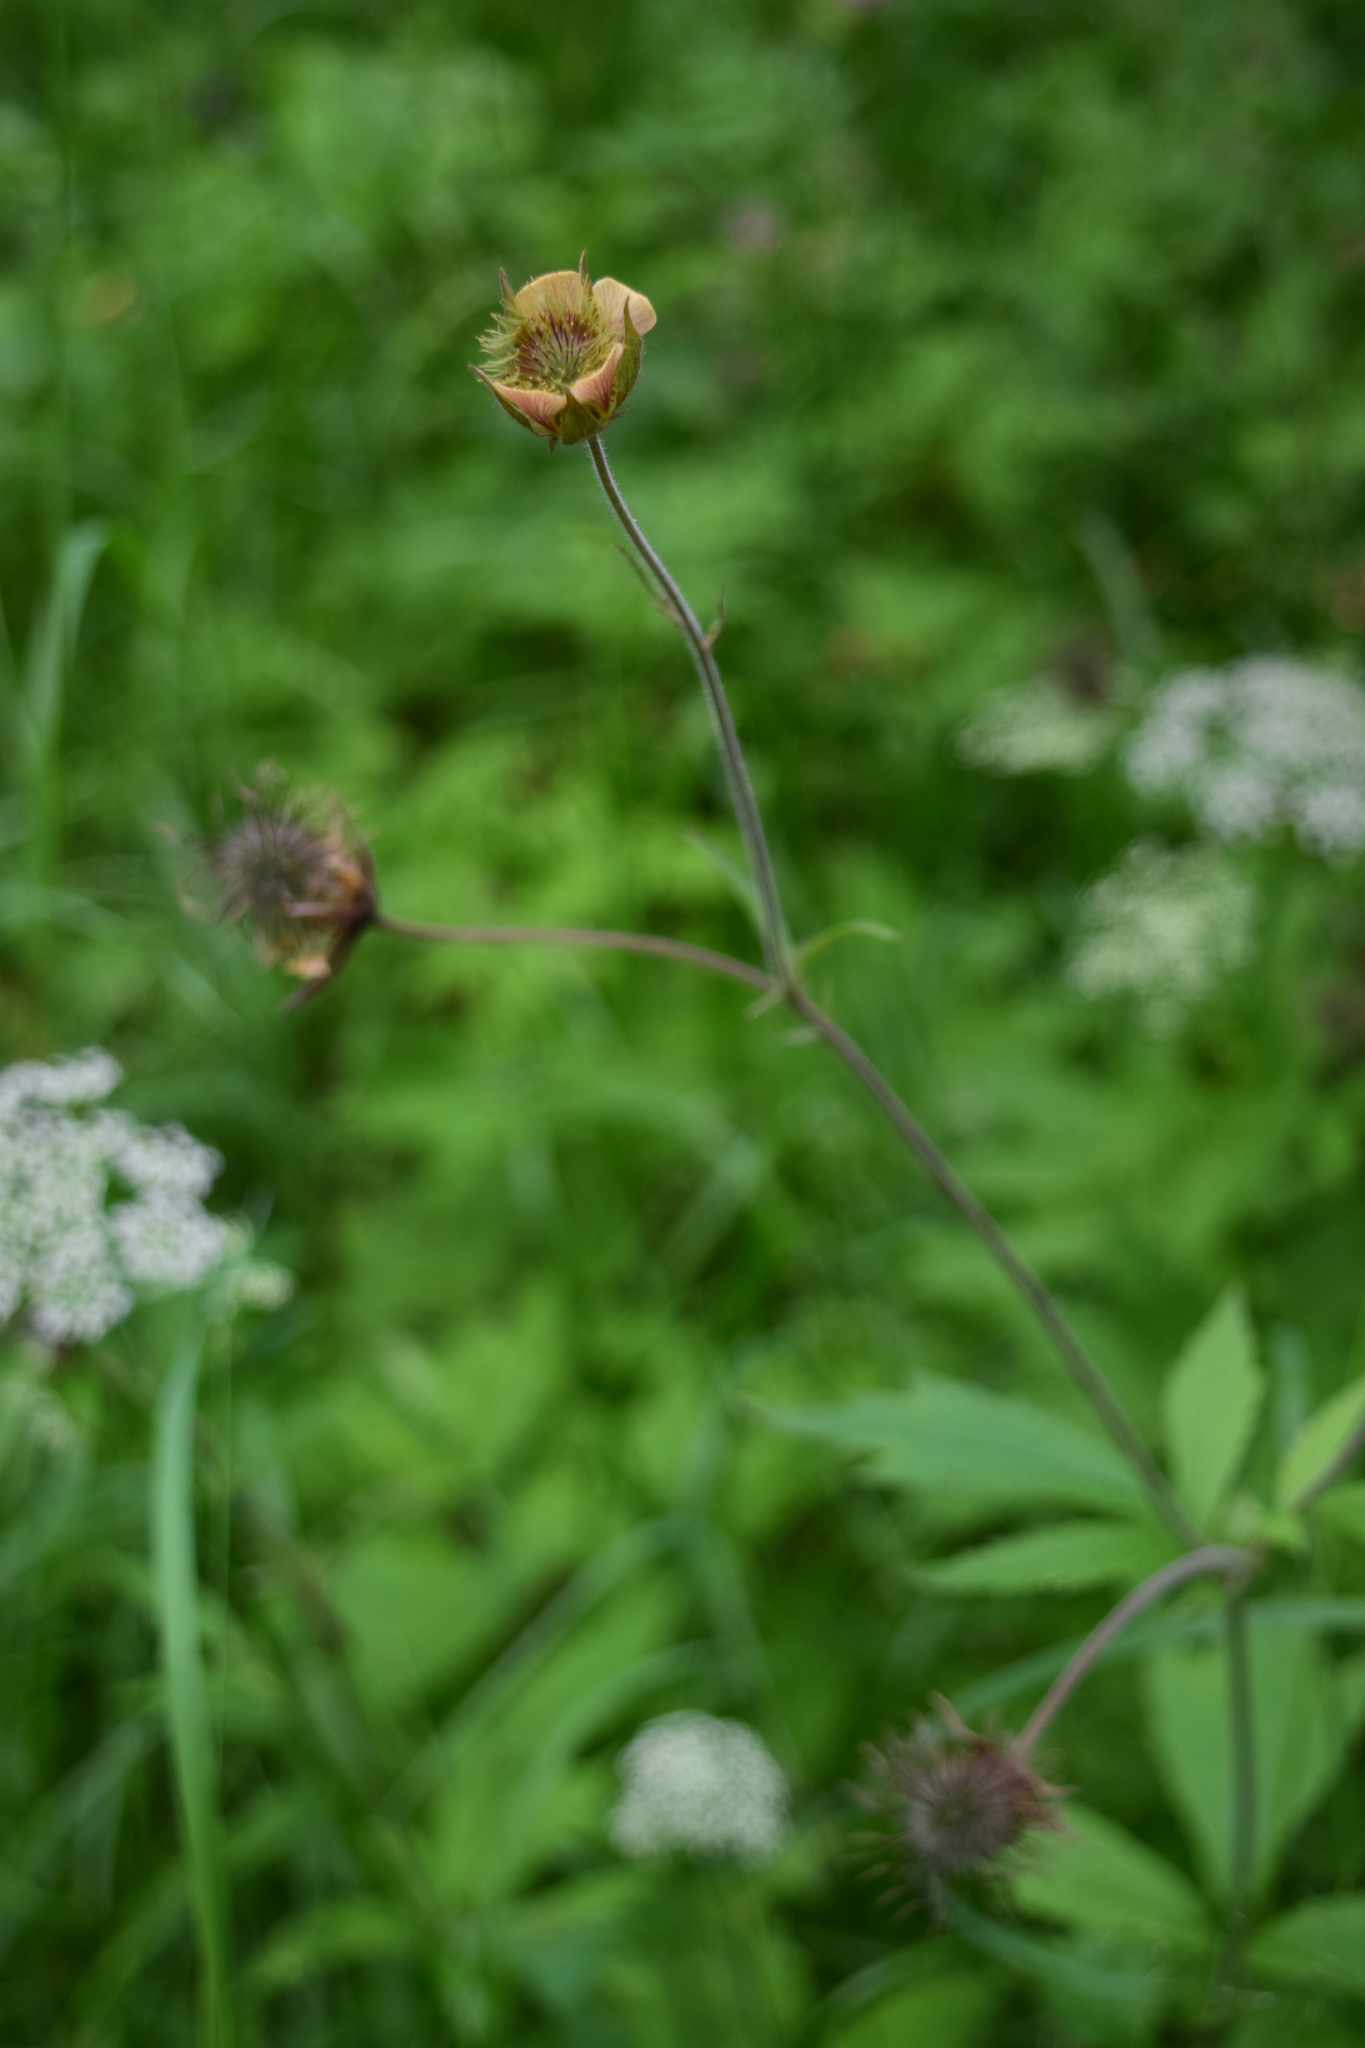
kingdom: Plantae
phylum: Tracheophyta
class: Magnoliopsida
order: Rosales
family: Rosaceae
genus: Geum
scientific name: Geum rivale
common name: Water avens
